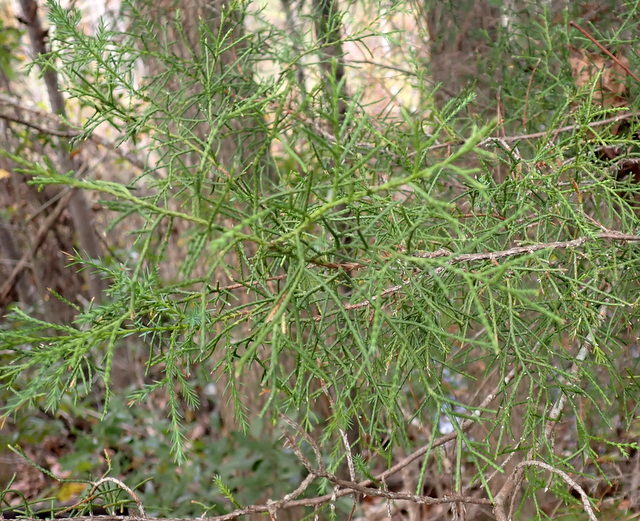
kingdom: Plantae
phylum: Tracheophyta
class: Pinopsida
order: Pinales
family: Cupressaceae
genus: Juniperus
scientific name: Juniperus virginiana
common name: Red juniper
